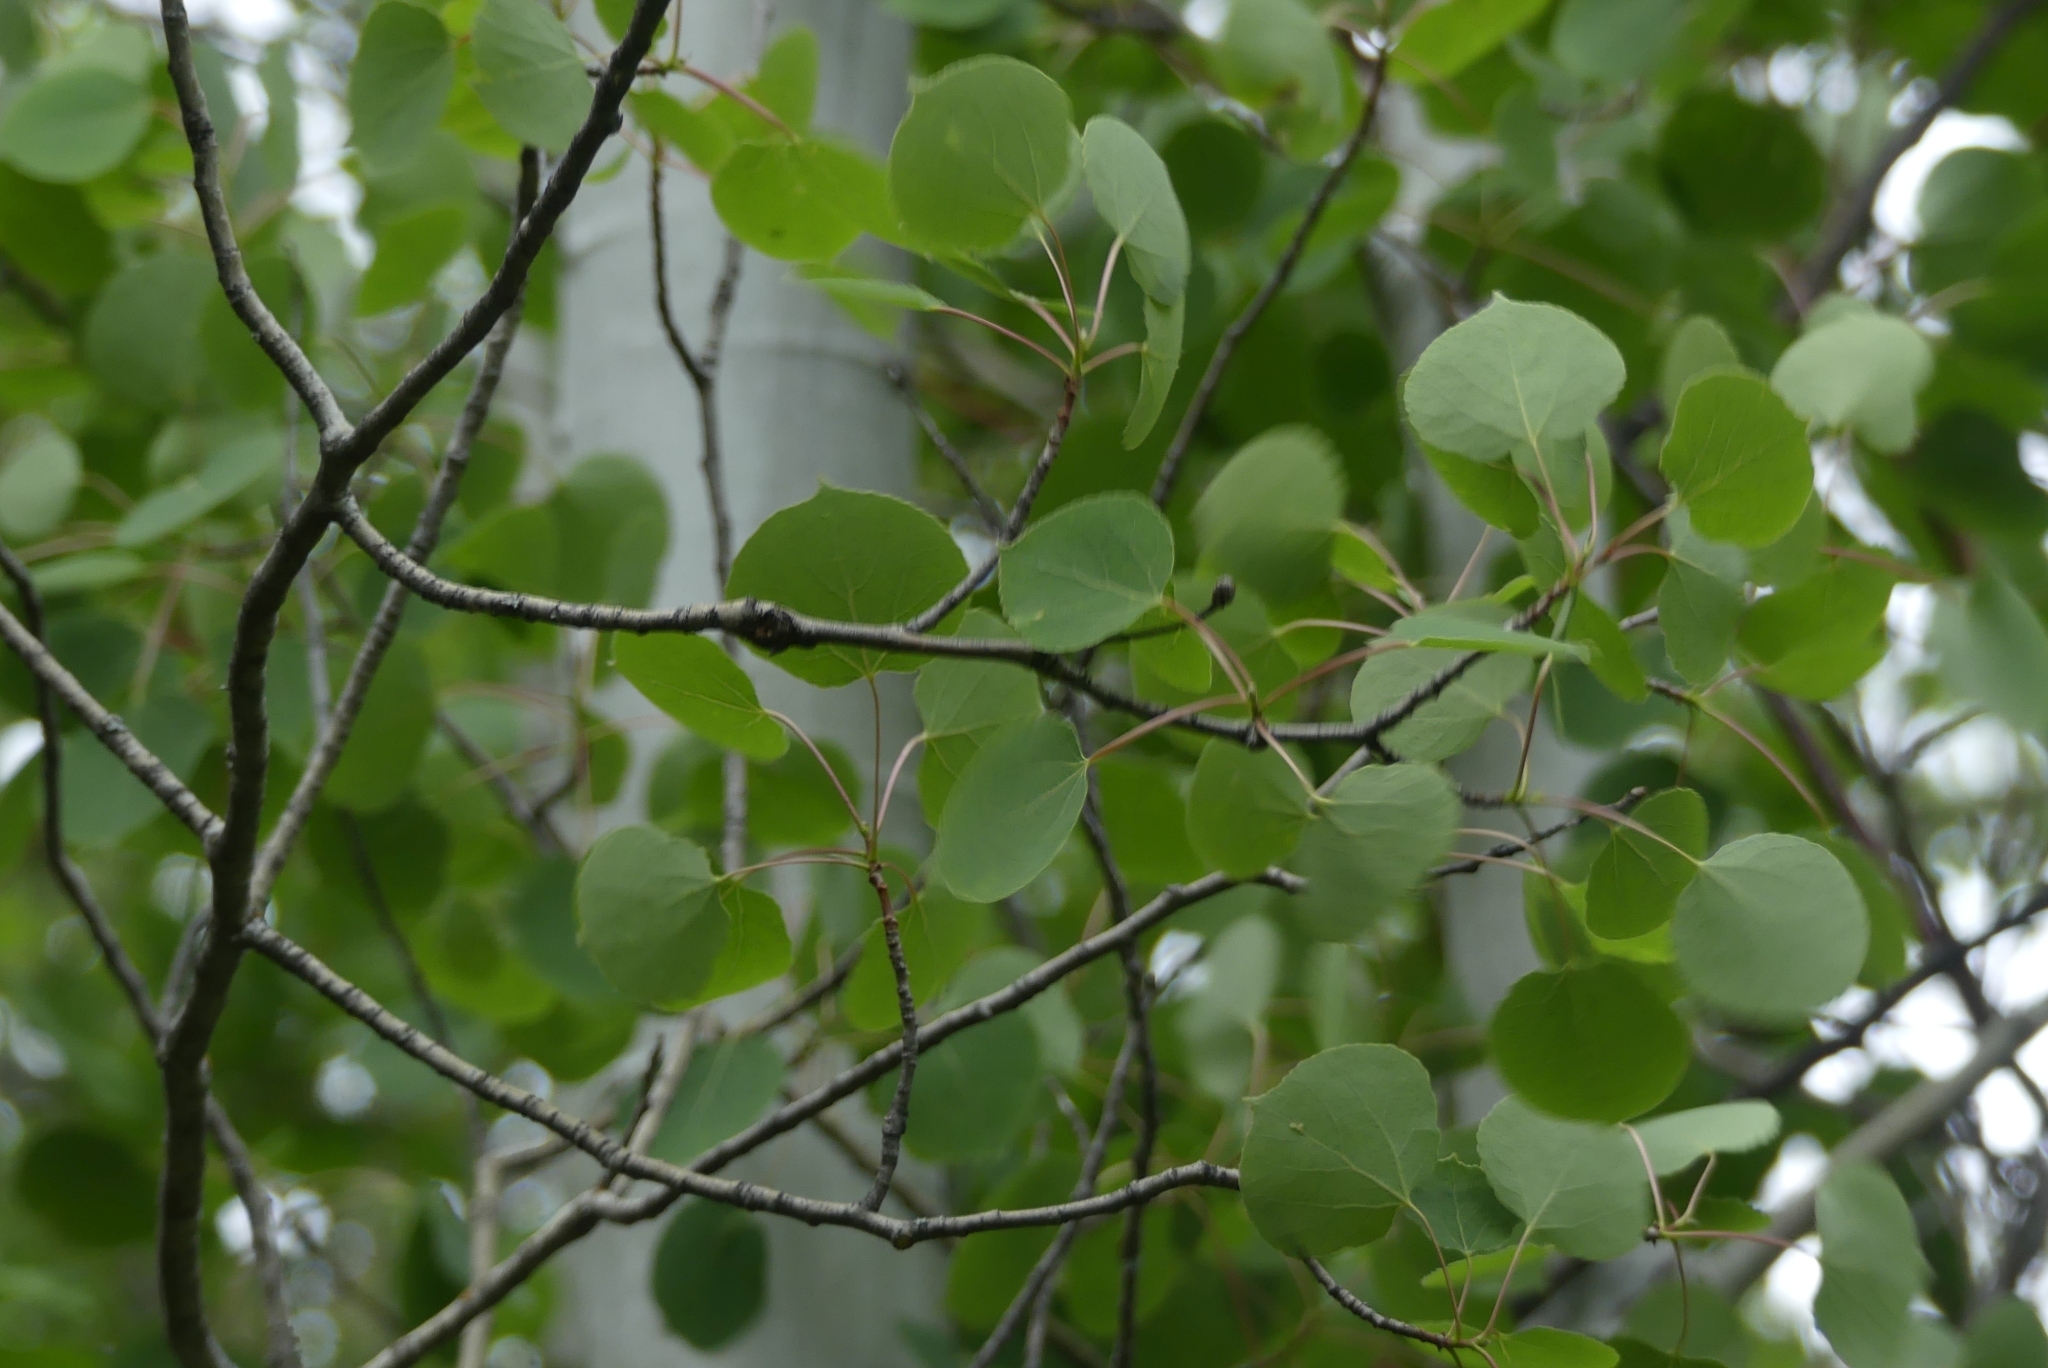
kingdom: Plantae
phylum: Tracheophyta
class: Magnoliopsida
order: Malpighiales
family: Salicaceae
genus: Populus
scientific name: Populus tremuloides
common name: Quaking aspen
